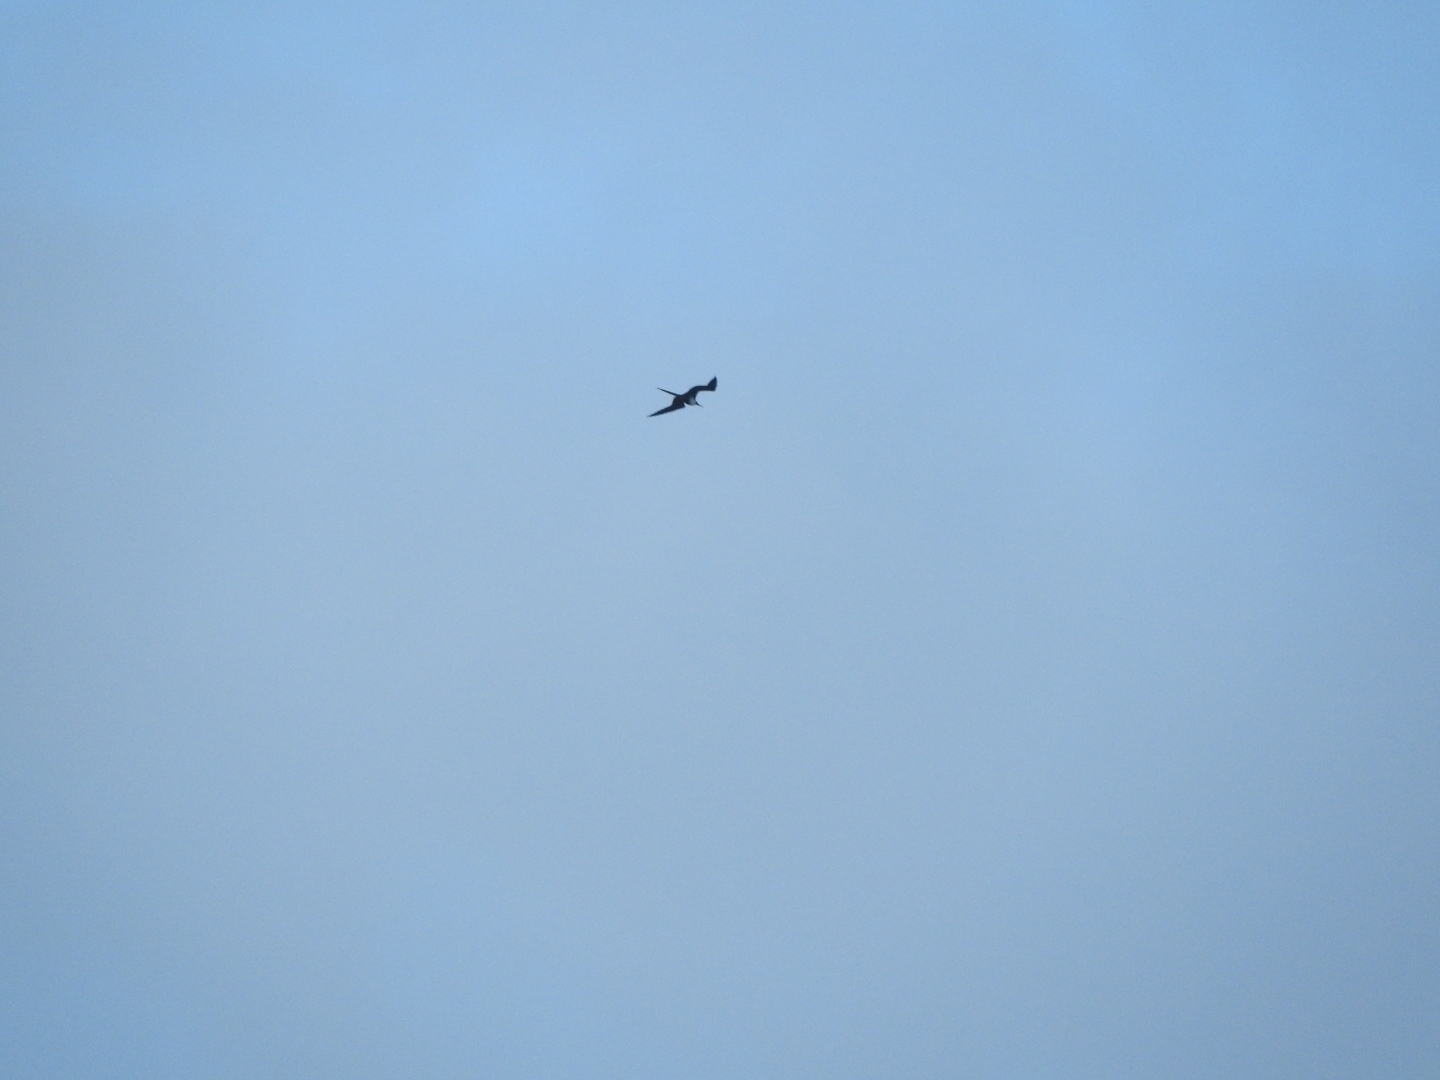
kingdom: Animalia
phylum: Chordata
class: Aves
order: Suliformes
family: Fregatidae
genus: Fregata
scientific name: Fregata magnificens
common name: Magnificent frigatebird
